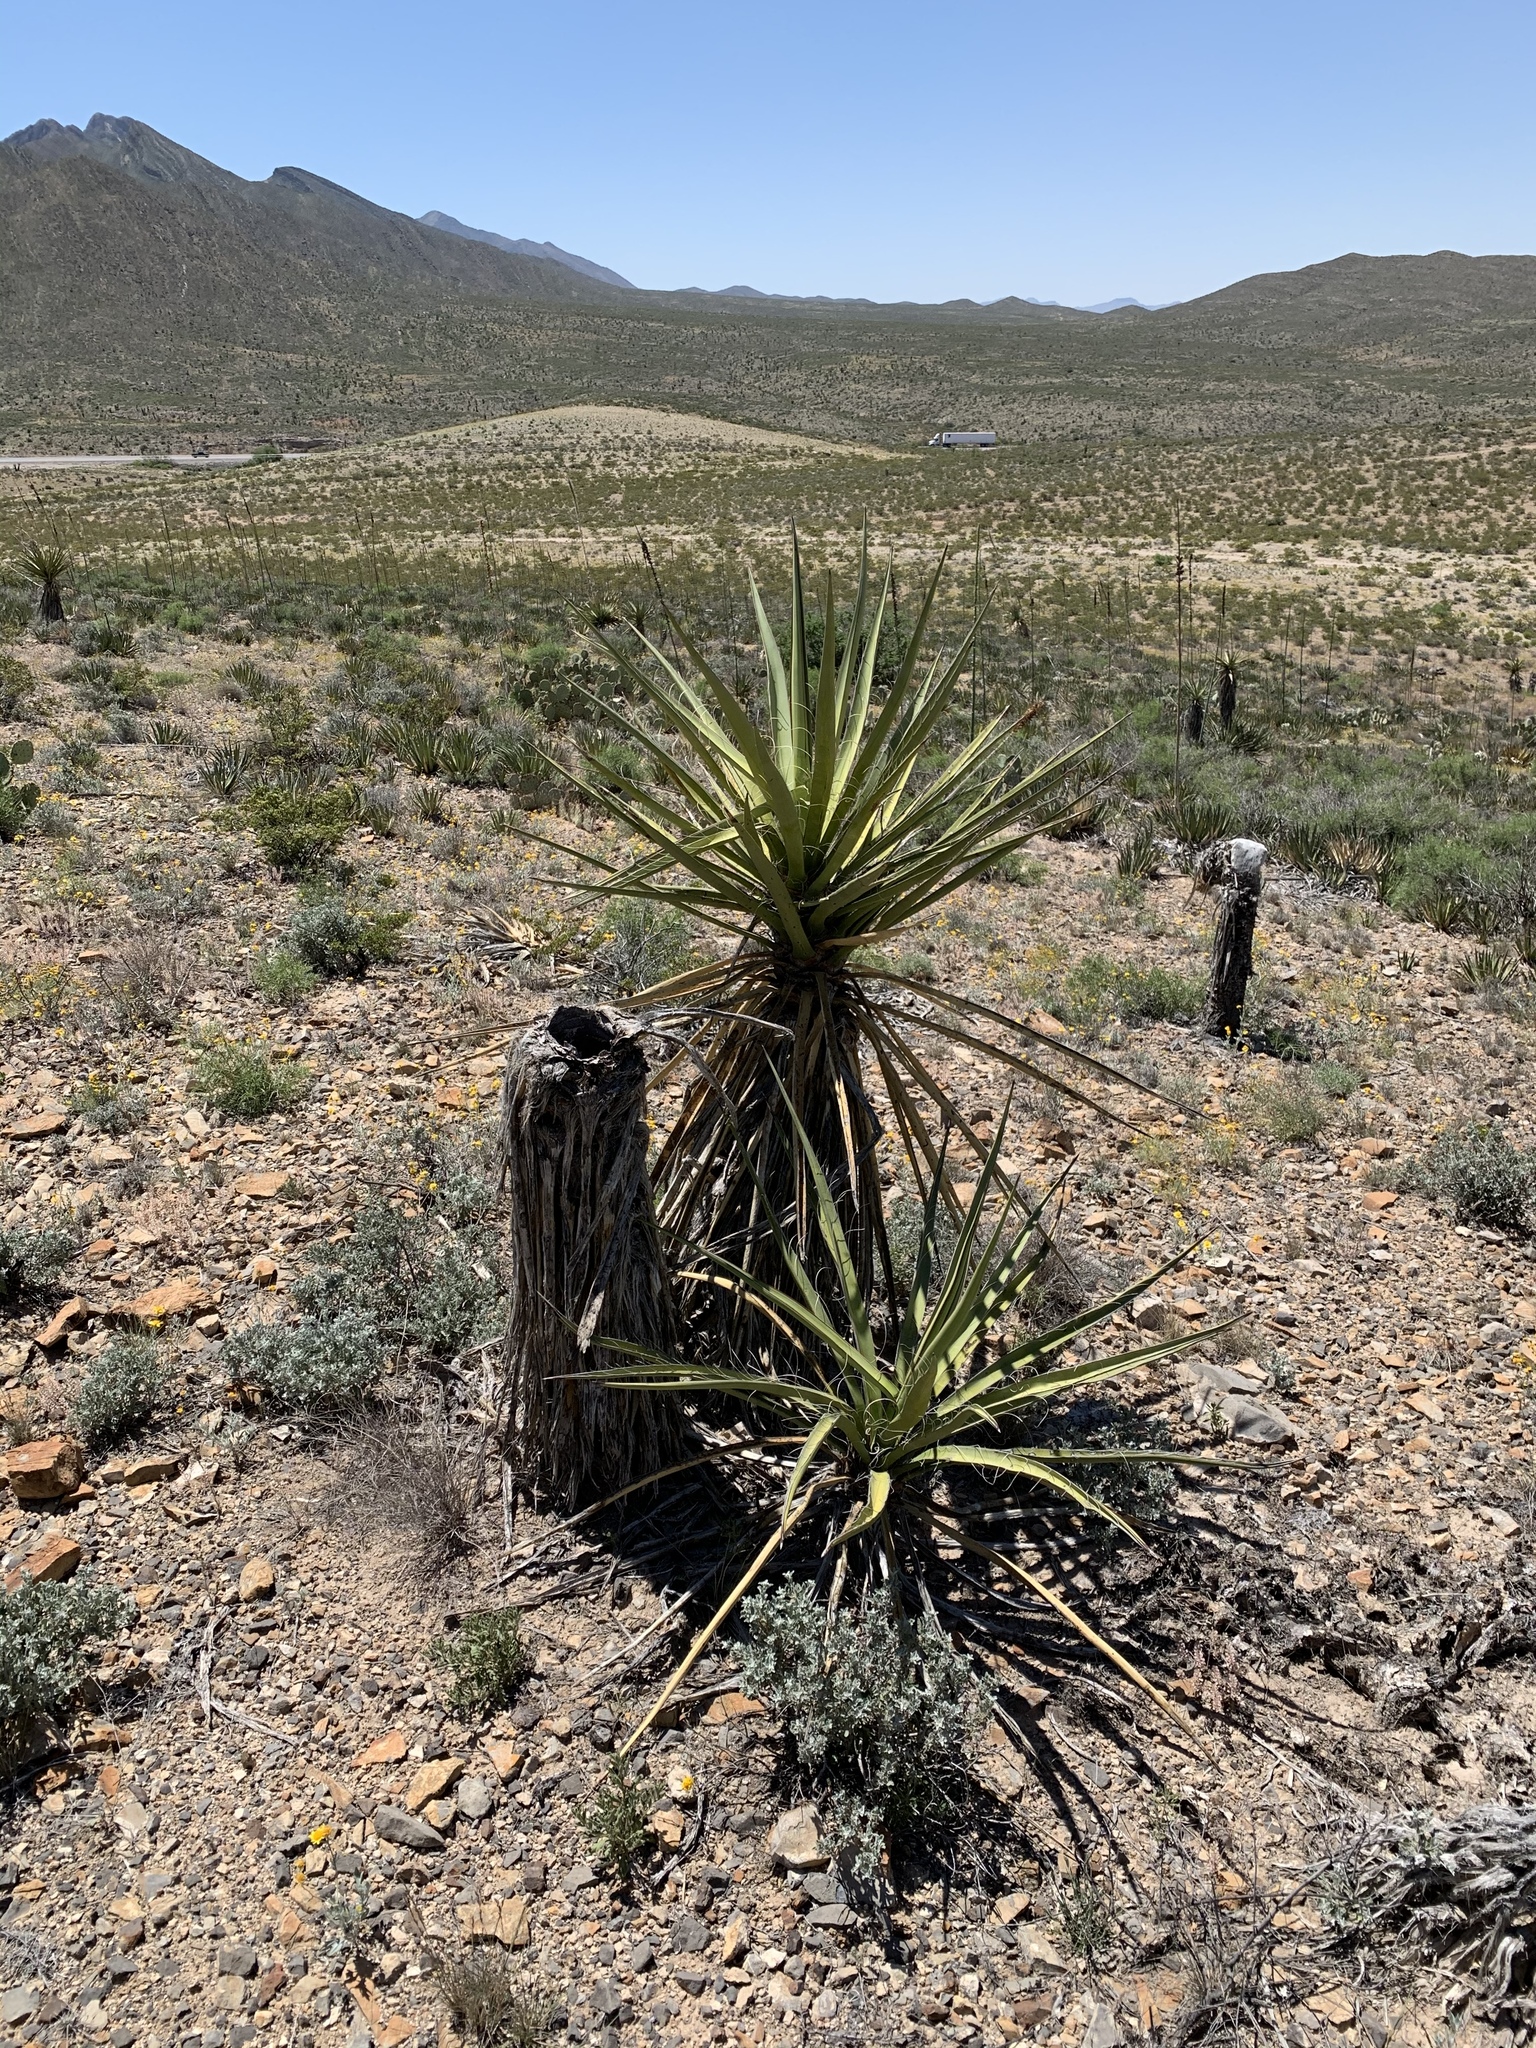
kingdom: Plantae
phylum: Tracheophyta
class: Liliopsida
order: Asparagales
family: Asparagaceae
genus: Yucca
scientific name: Yucca treculiana
